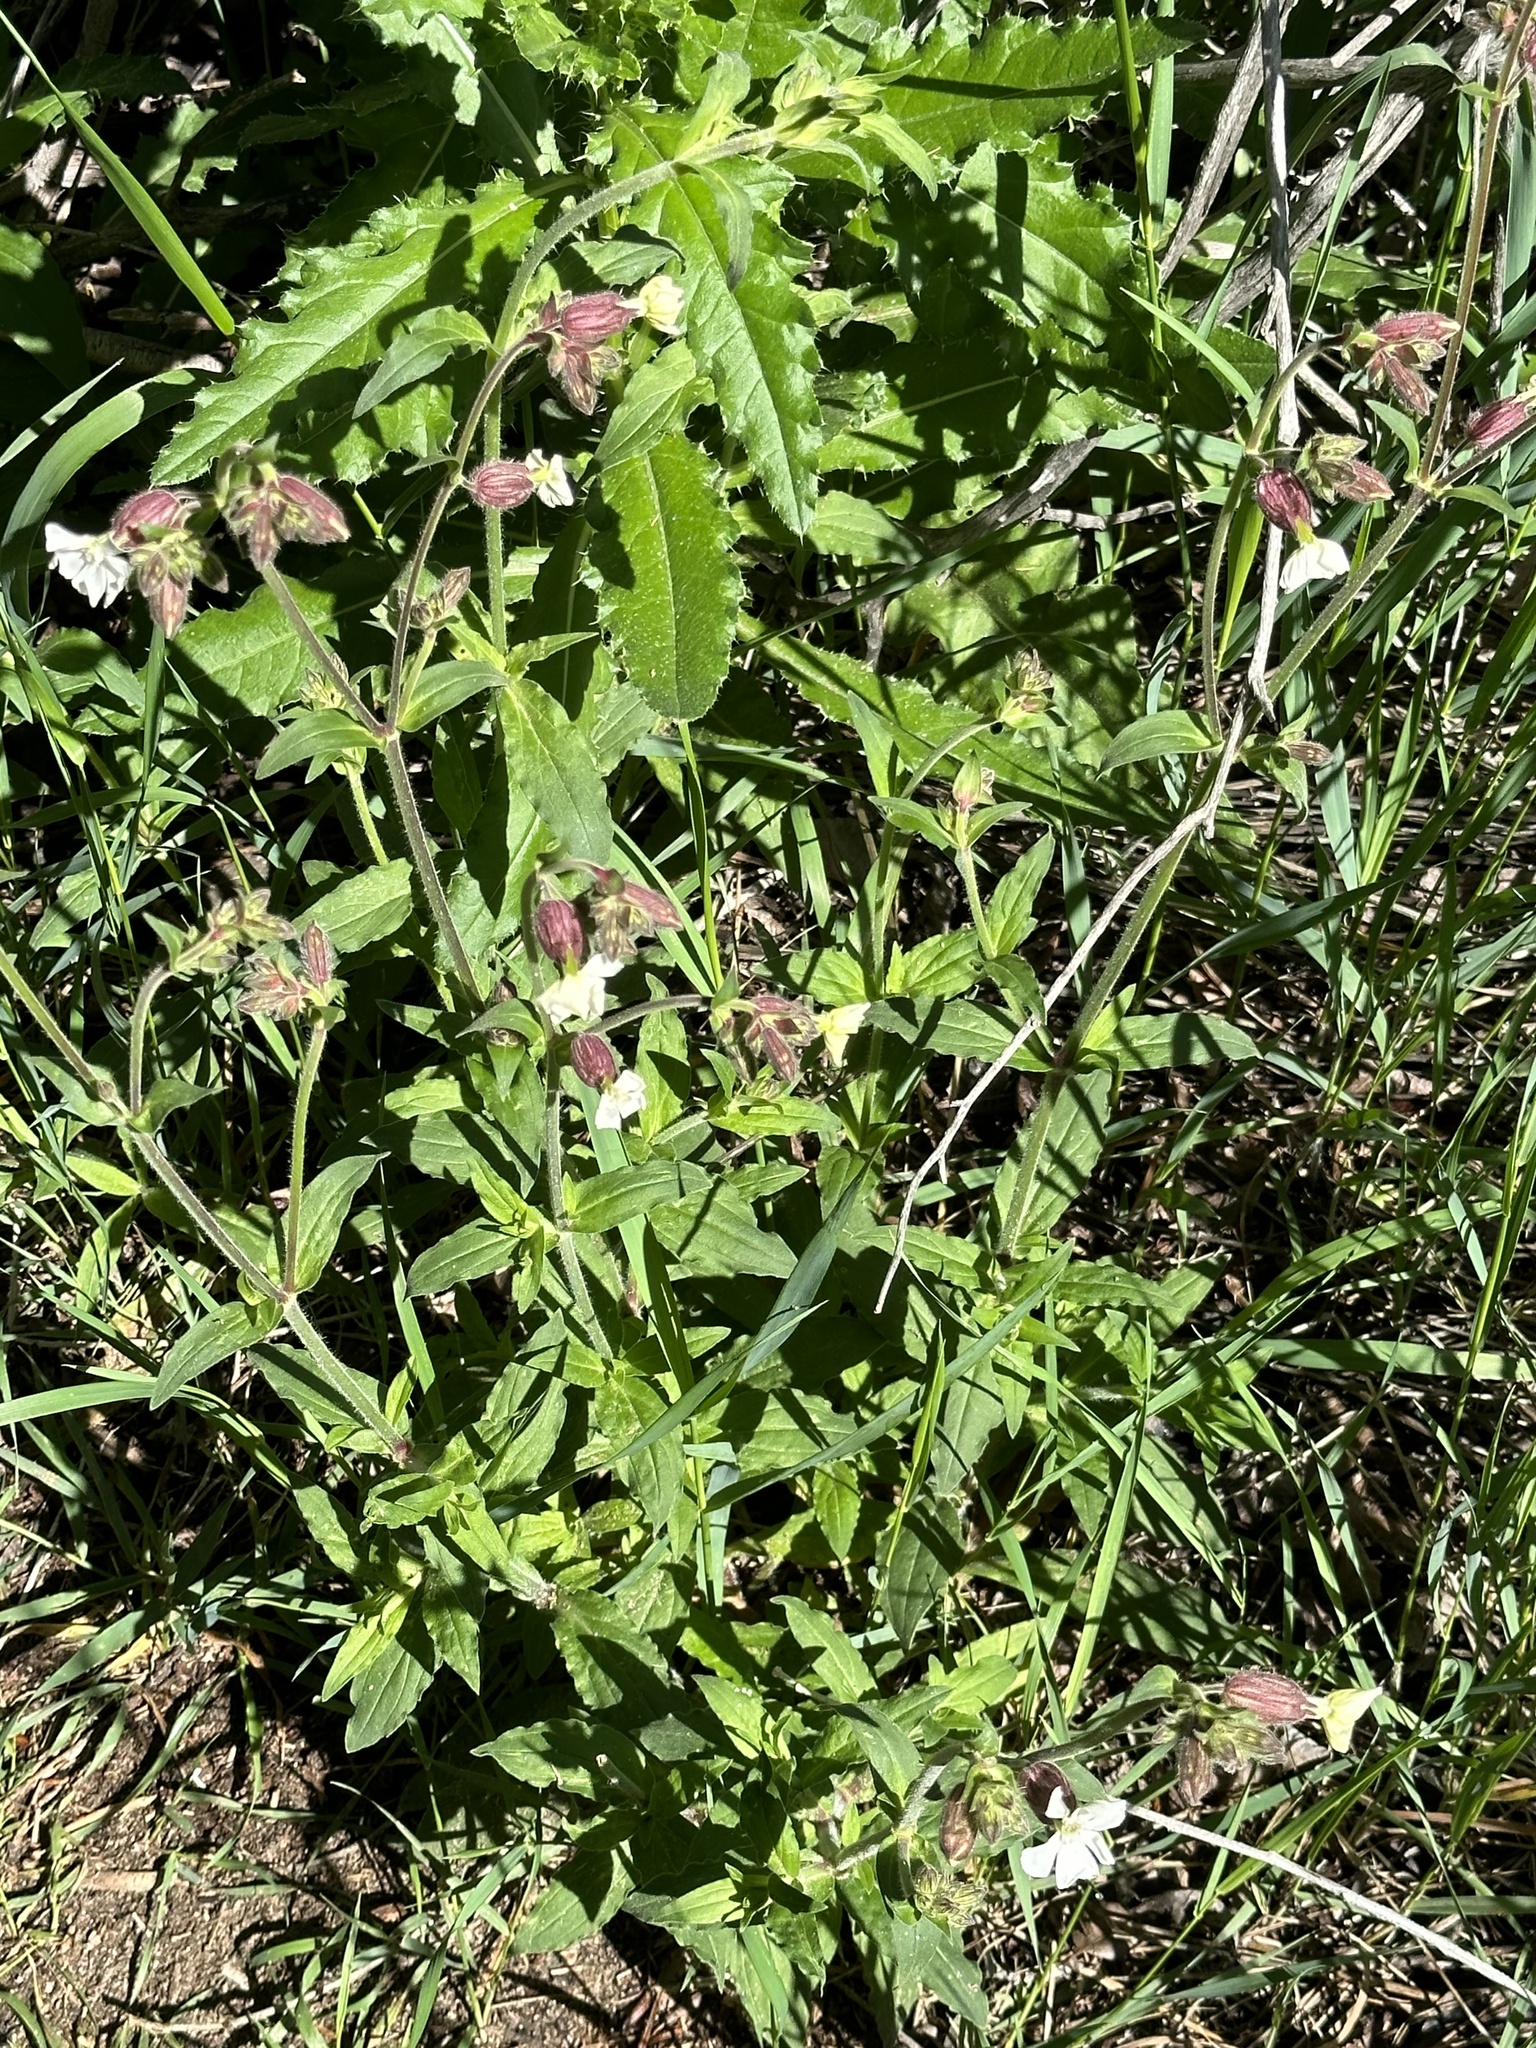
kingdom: Plantae
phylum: Tracheophyta
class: Magnoliopsida
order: Caryophyllales
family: Caryophyllaceae
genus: Silene
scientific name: Silene latifolia
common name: White campion
